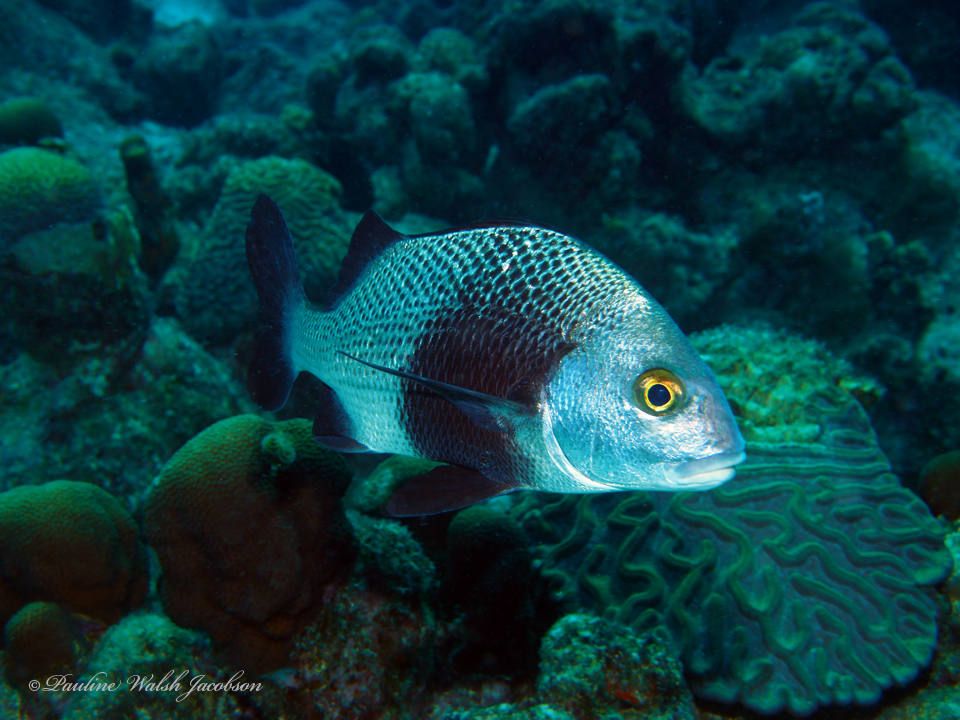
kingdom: Animalia
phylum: Chordata
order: Perciformes
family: Haemulidae
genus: Anisotremus
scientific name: Anisotremus surinamensis
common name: Black margate
